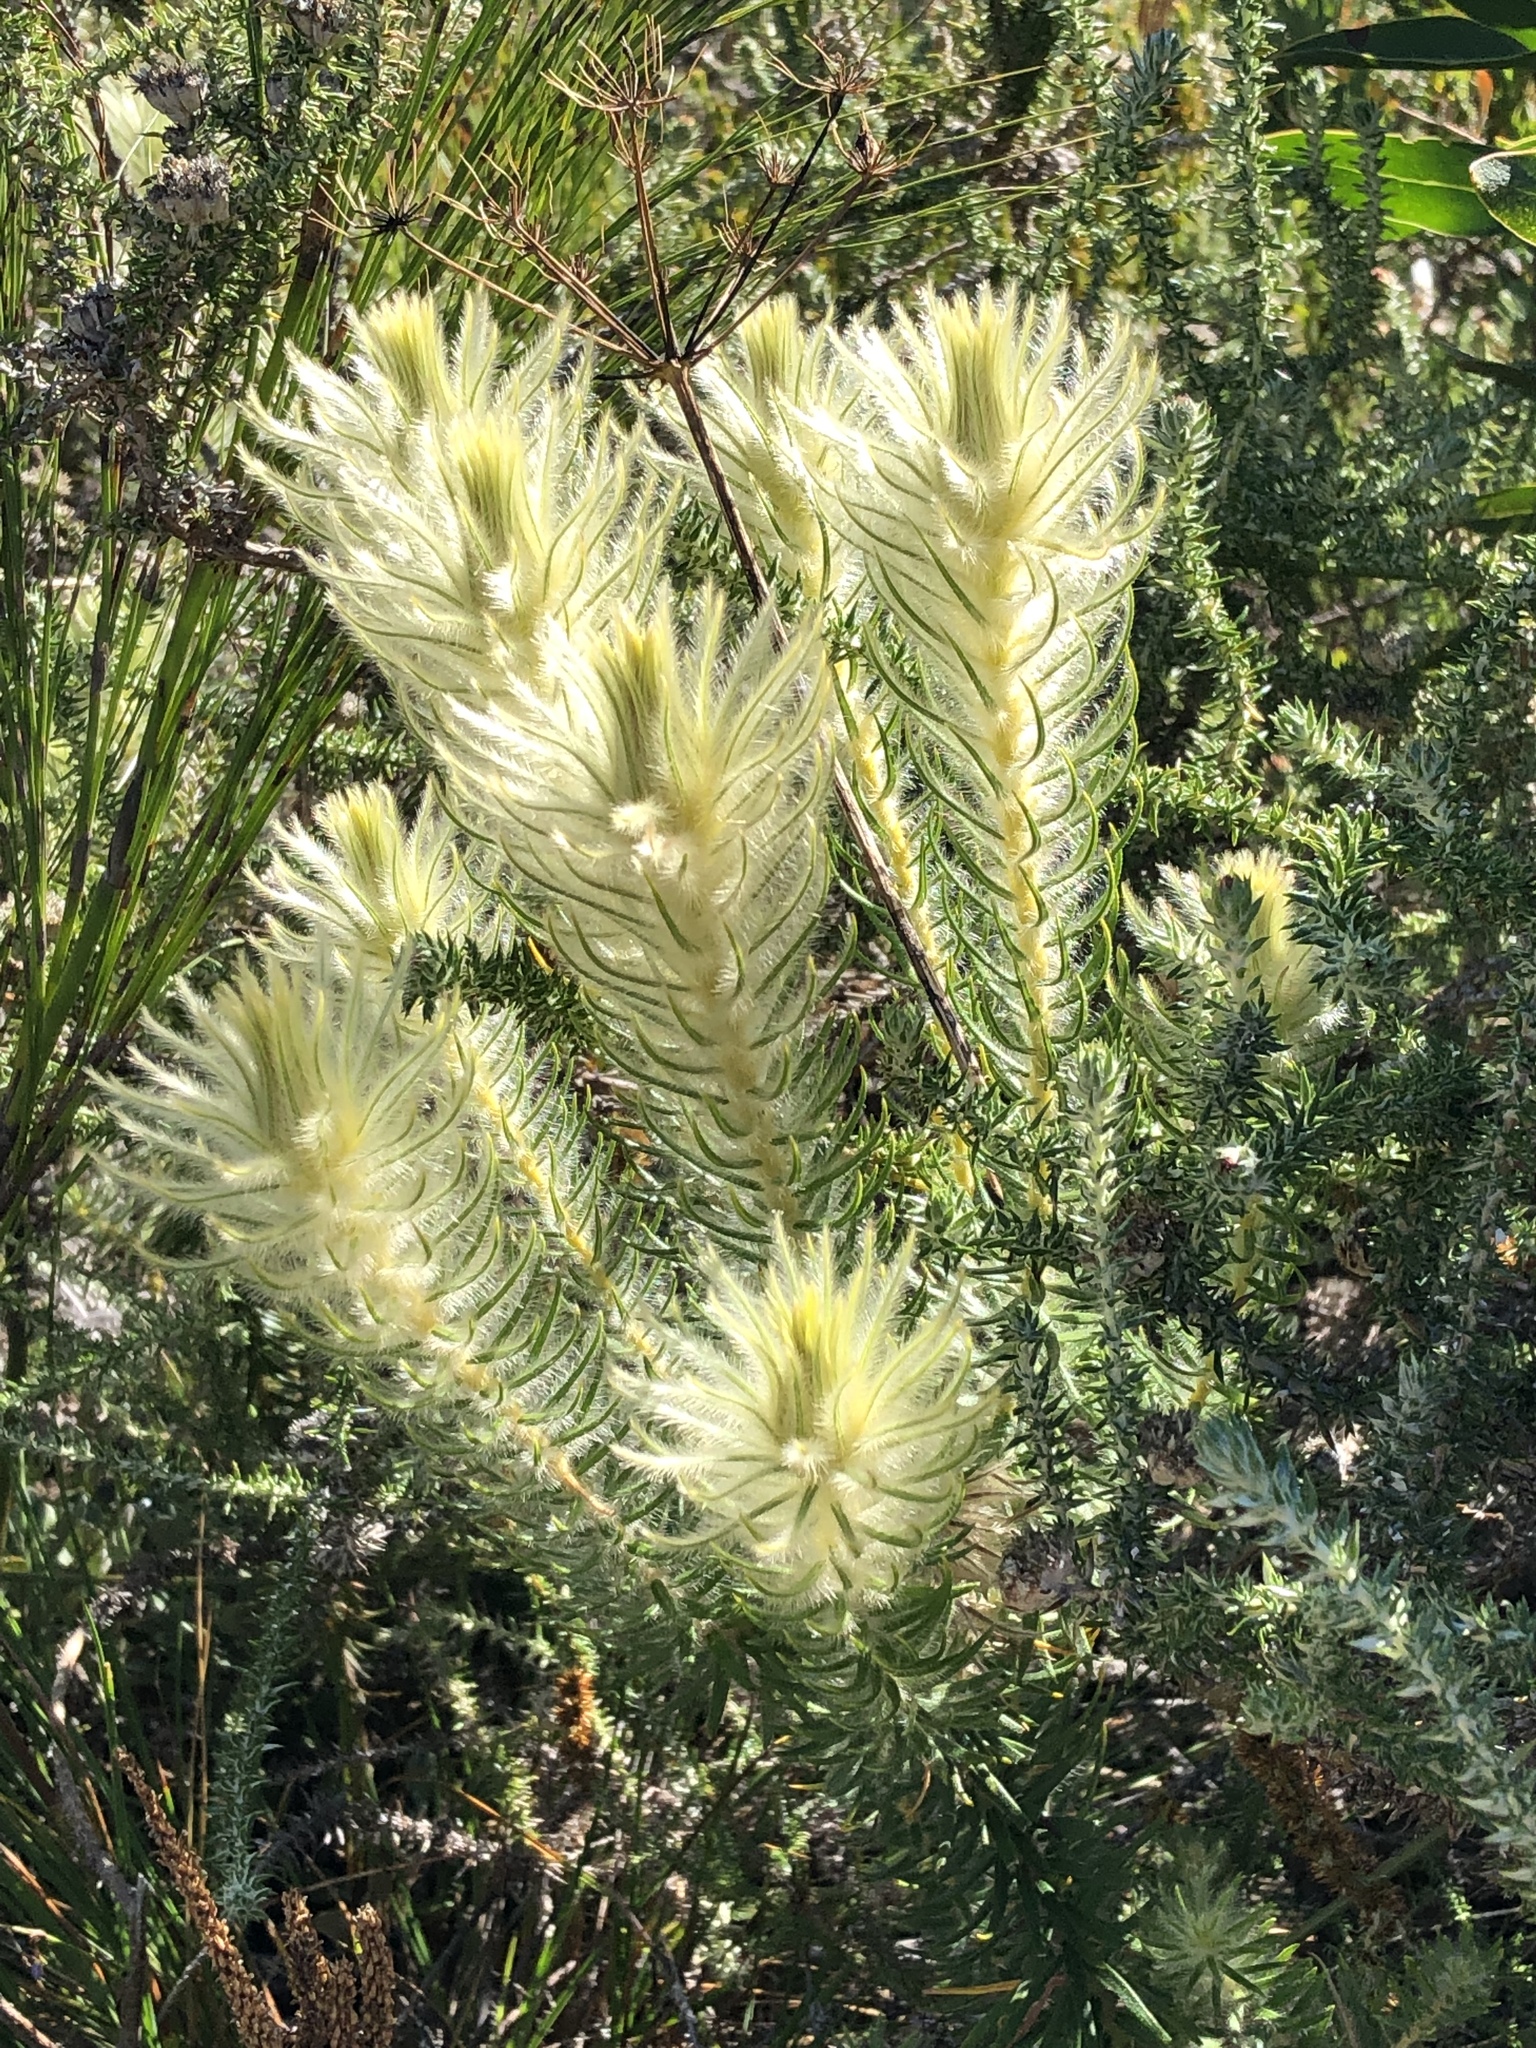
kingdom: Plantae
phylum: Tracheophyta
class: Magnoliopsida
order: Rosales
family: Rhamnaceae
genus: Phylica
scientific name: Phylica pubescens
